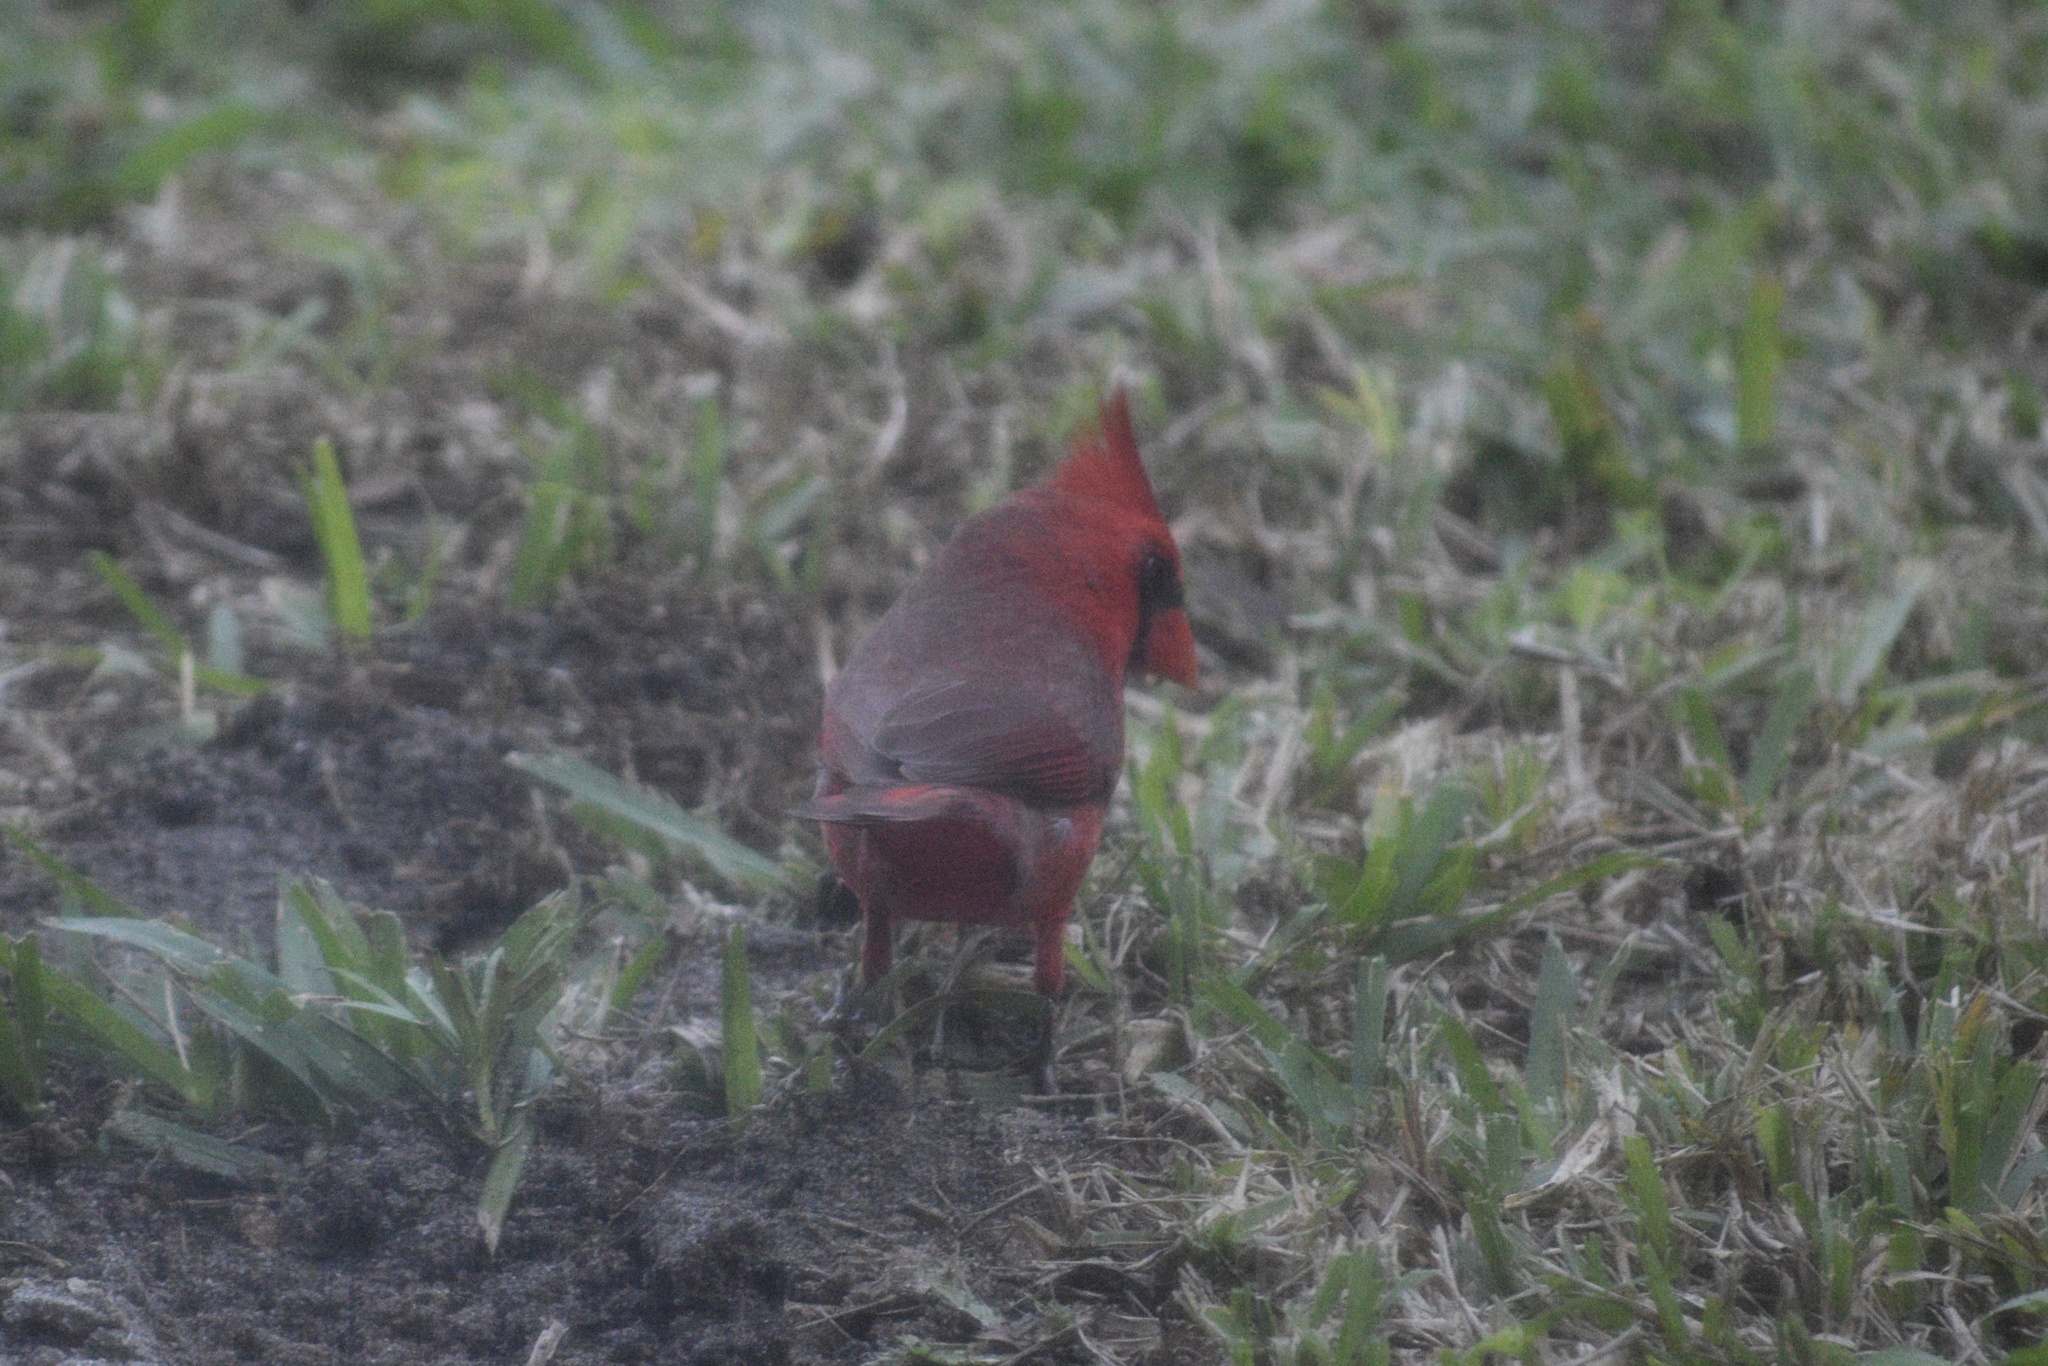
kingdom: Animalia
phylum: Chordata
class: Aves
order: Passeriformes
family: Cardinalidae
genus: Cardinalis
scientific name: Cardinalis cardinalis
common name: Northern cardinal
